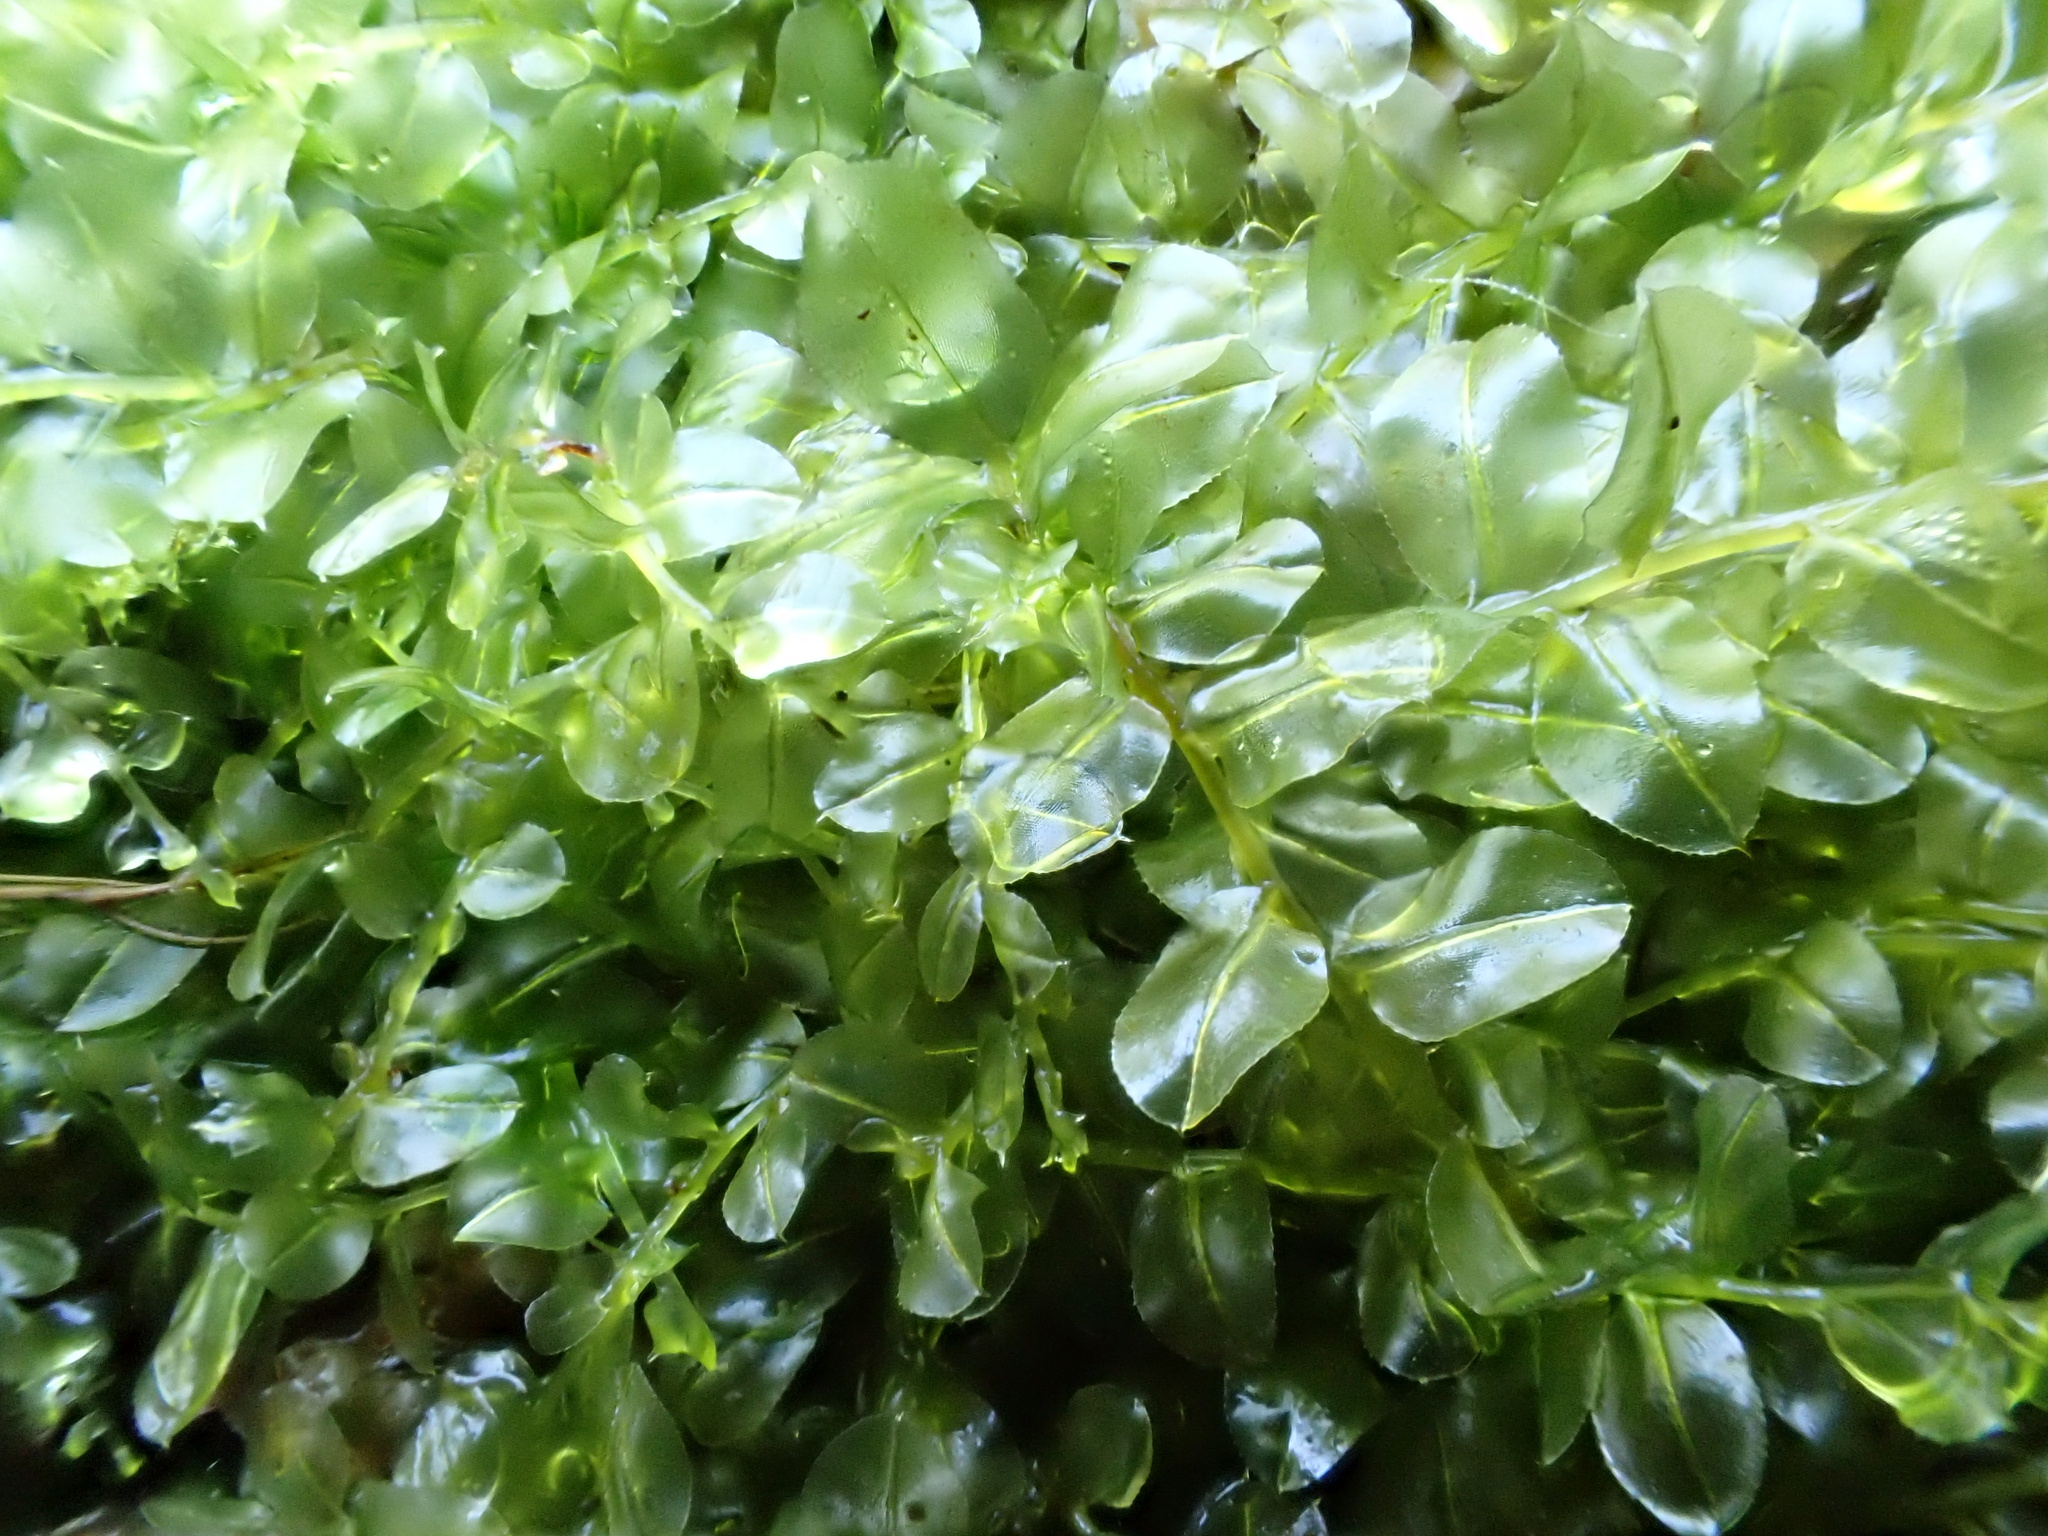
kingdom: Plantae
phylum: Bryophyta
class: Bryopsida
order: Bryales
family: Mniaceae
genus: Plagiomnium
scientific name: Plagiomnium affine
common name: Many-fruited thyme-moss
